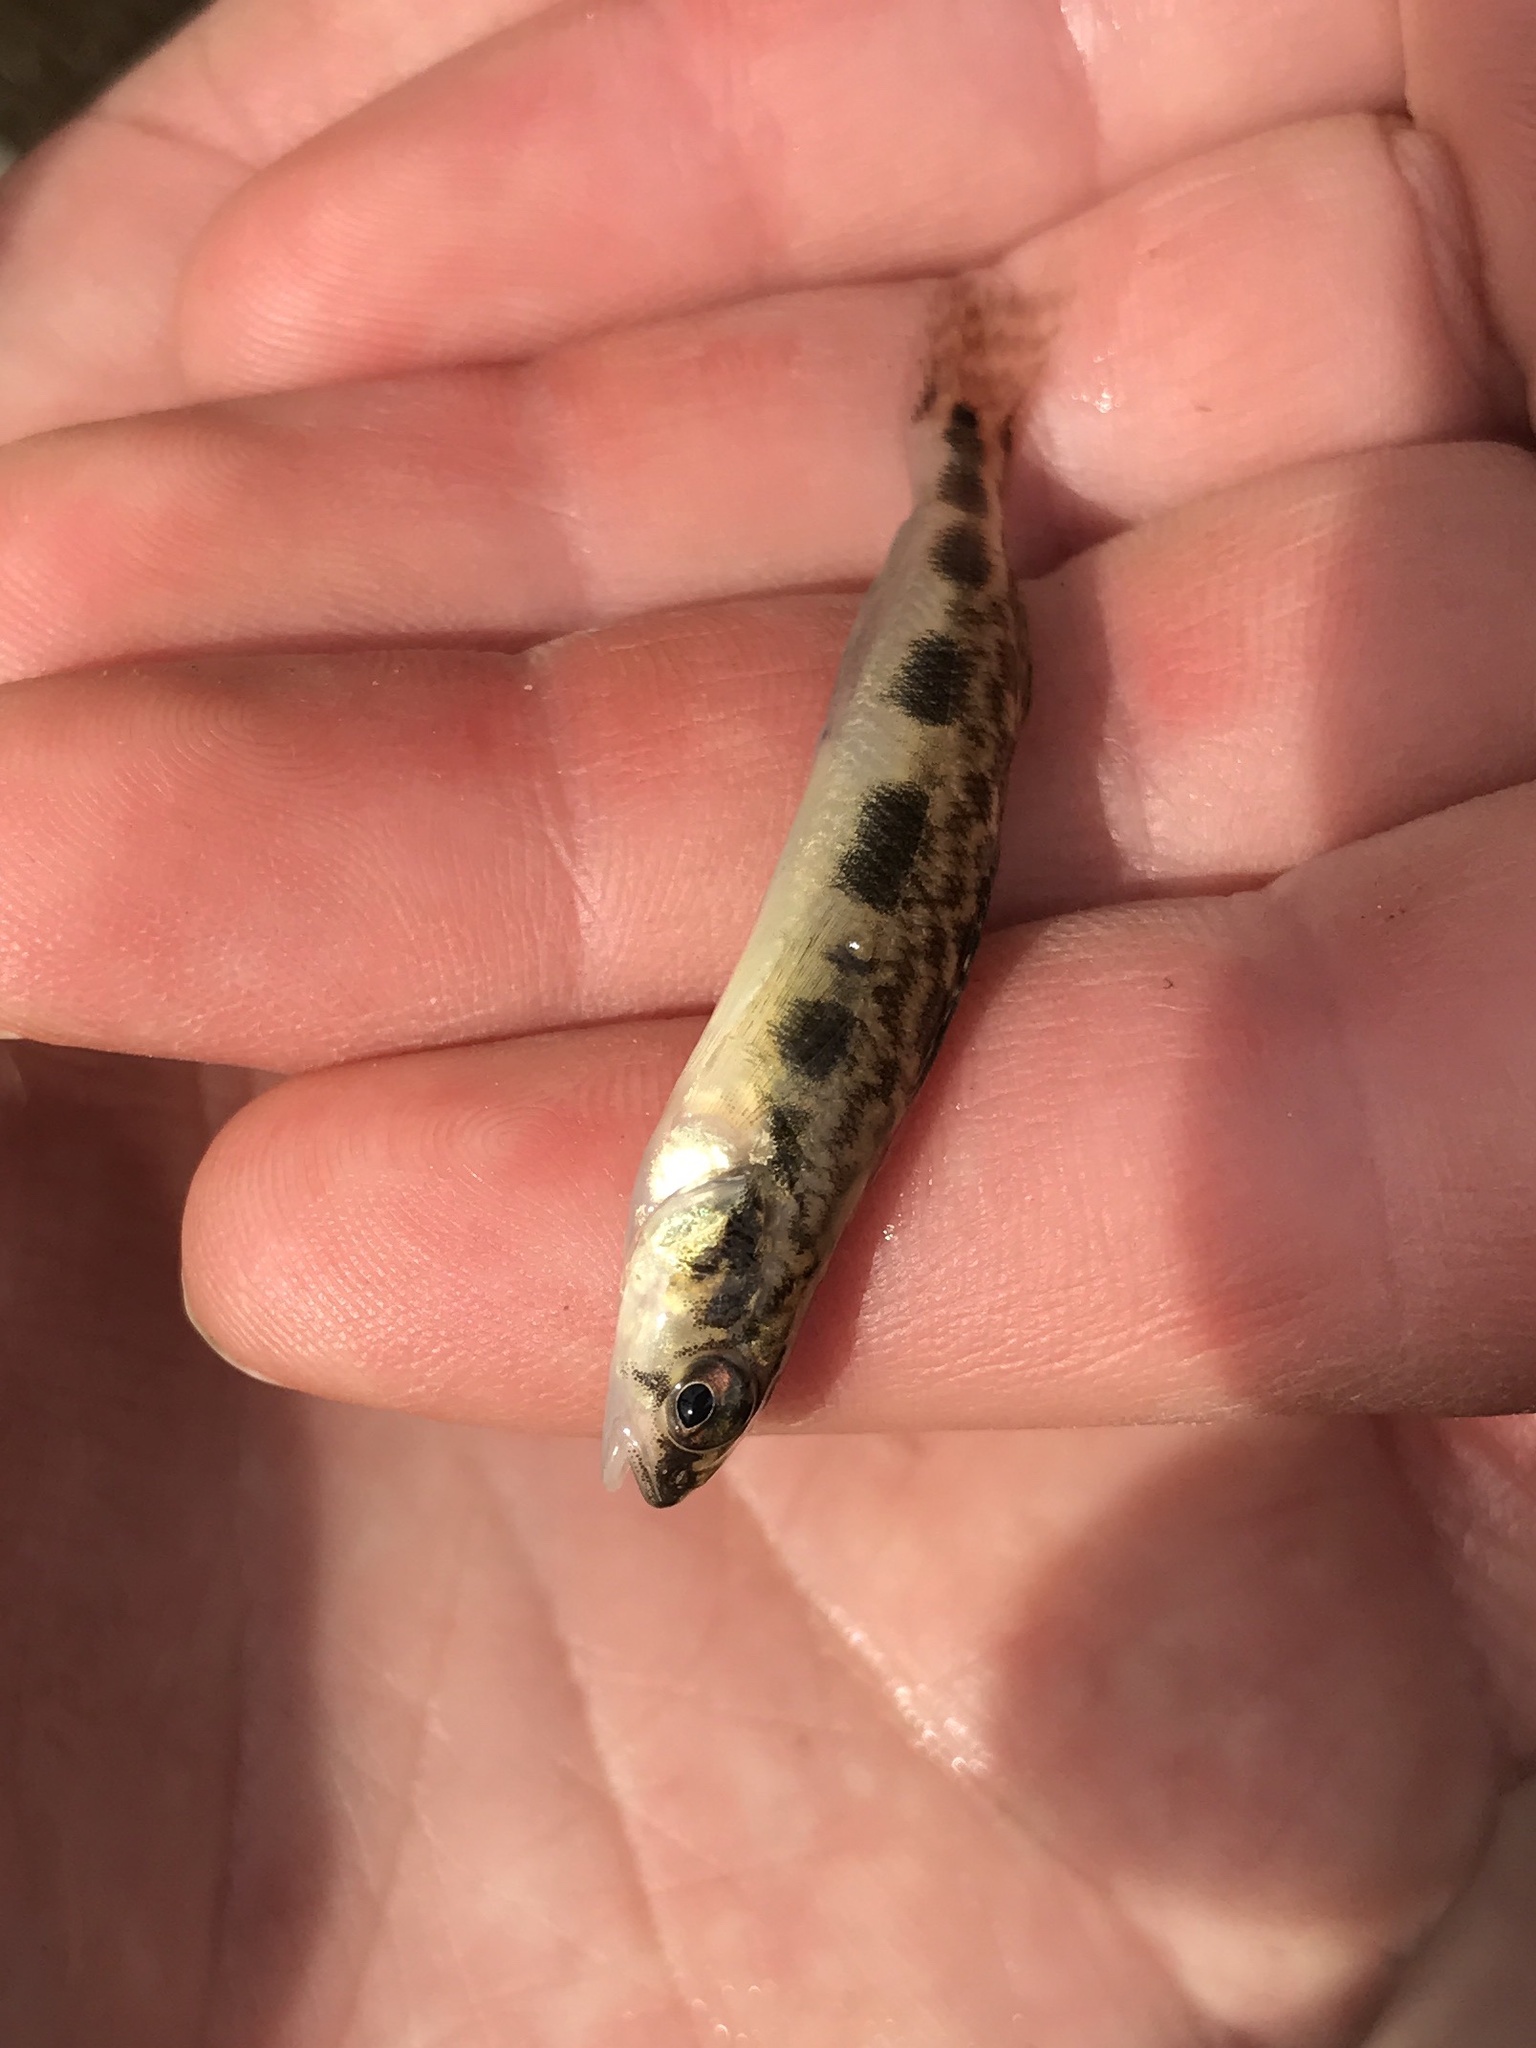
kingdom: Animalia
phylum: Chordata
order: Perciformes
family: Percidae
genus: Percina
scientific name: Percina maculata
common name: Blackside darter
